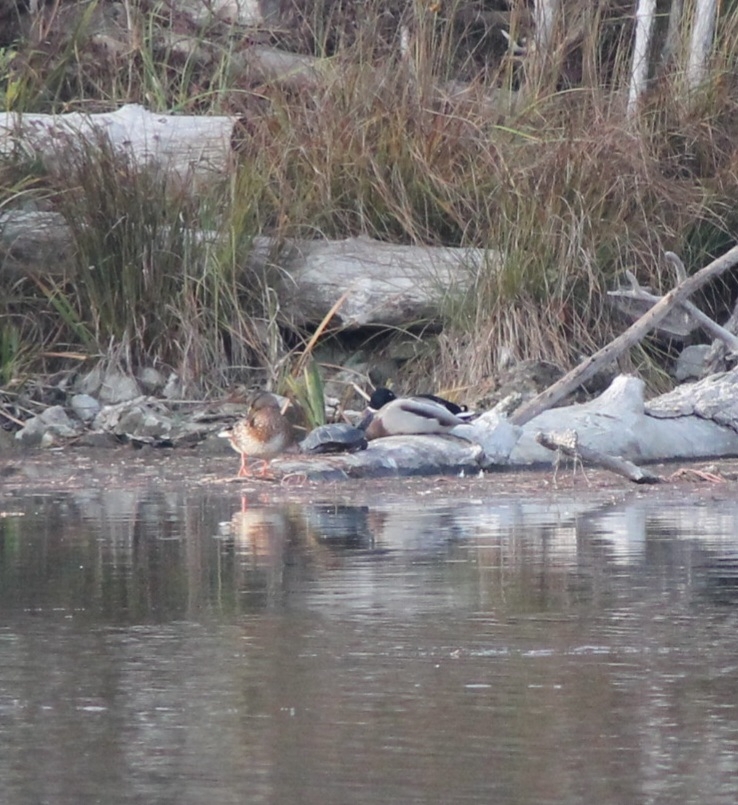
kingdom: Animalia
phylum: Chordata
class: Testudines
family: Emydidae
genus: Emys
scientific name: Emys orbicularis
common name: European pond turtle
